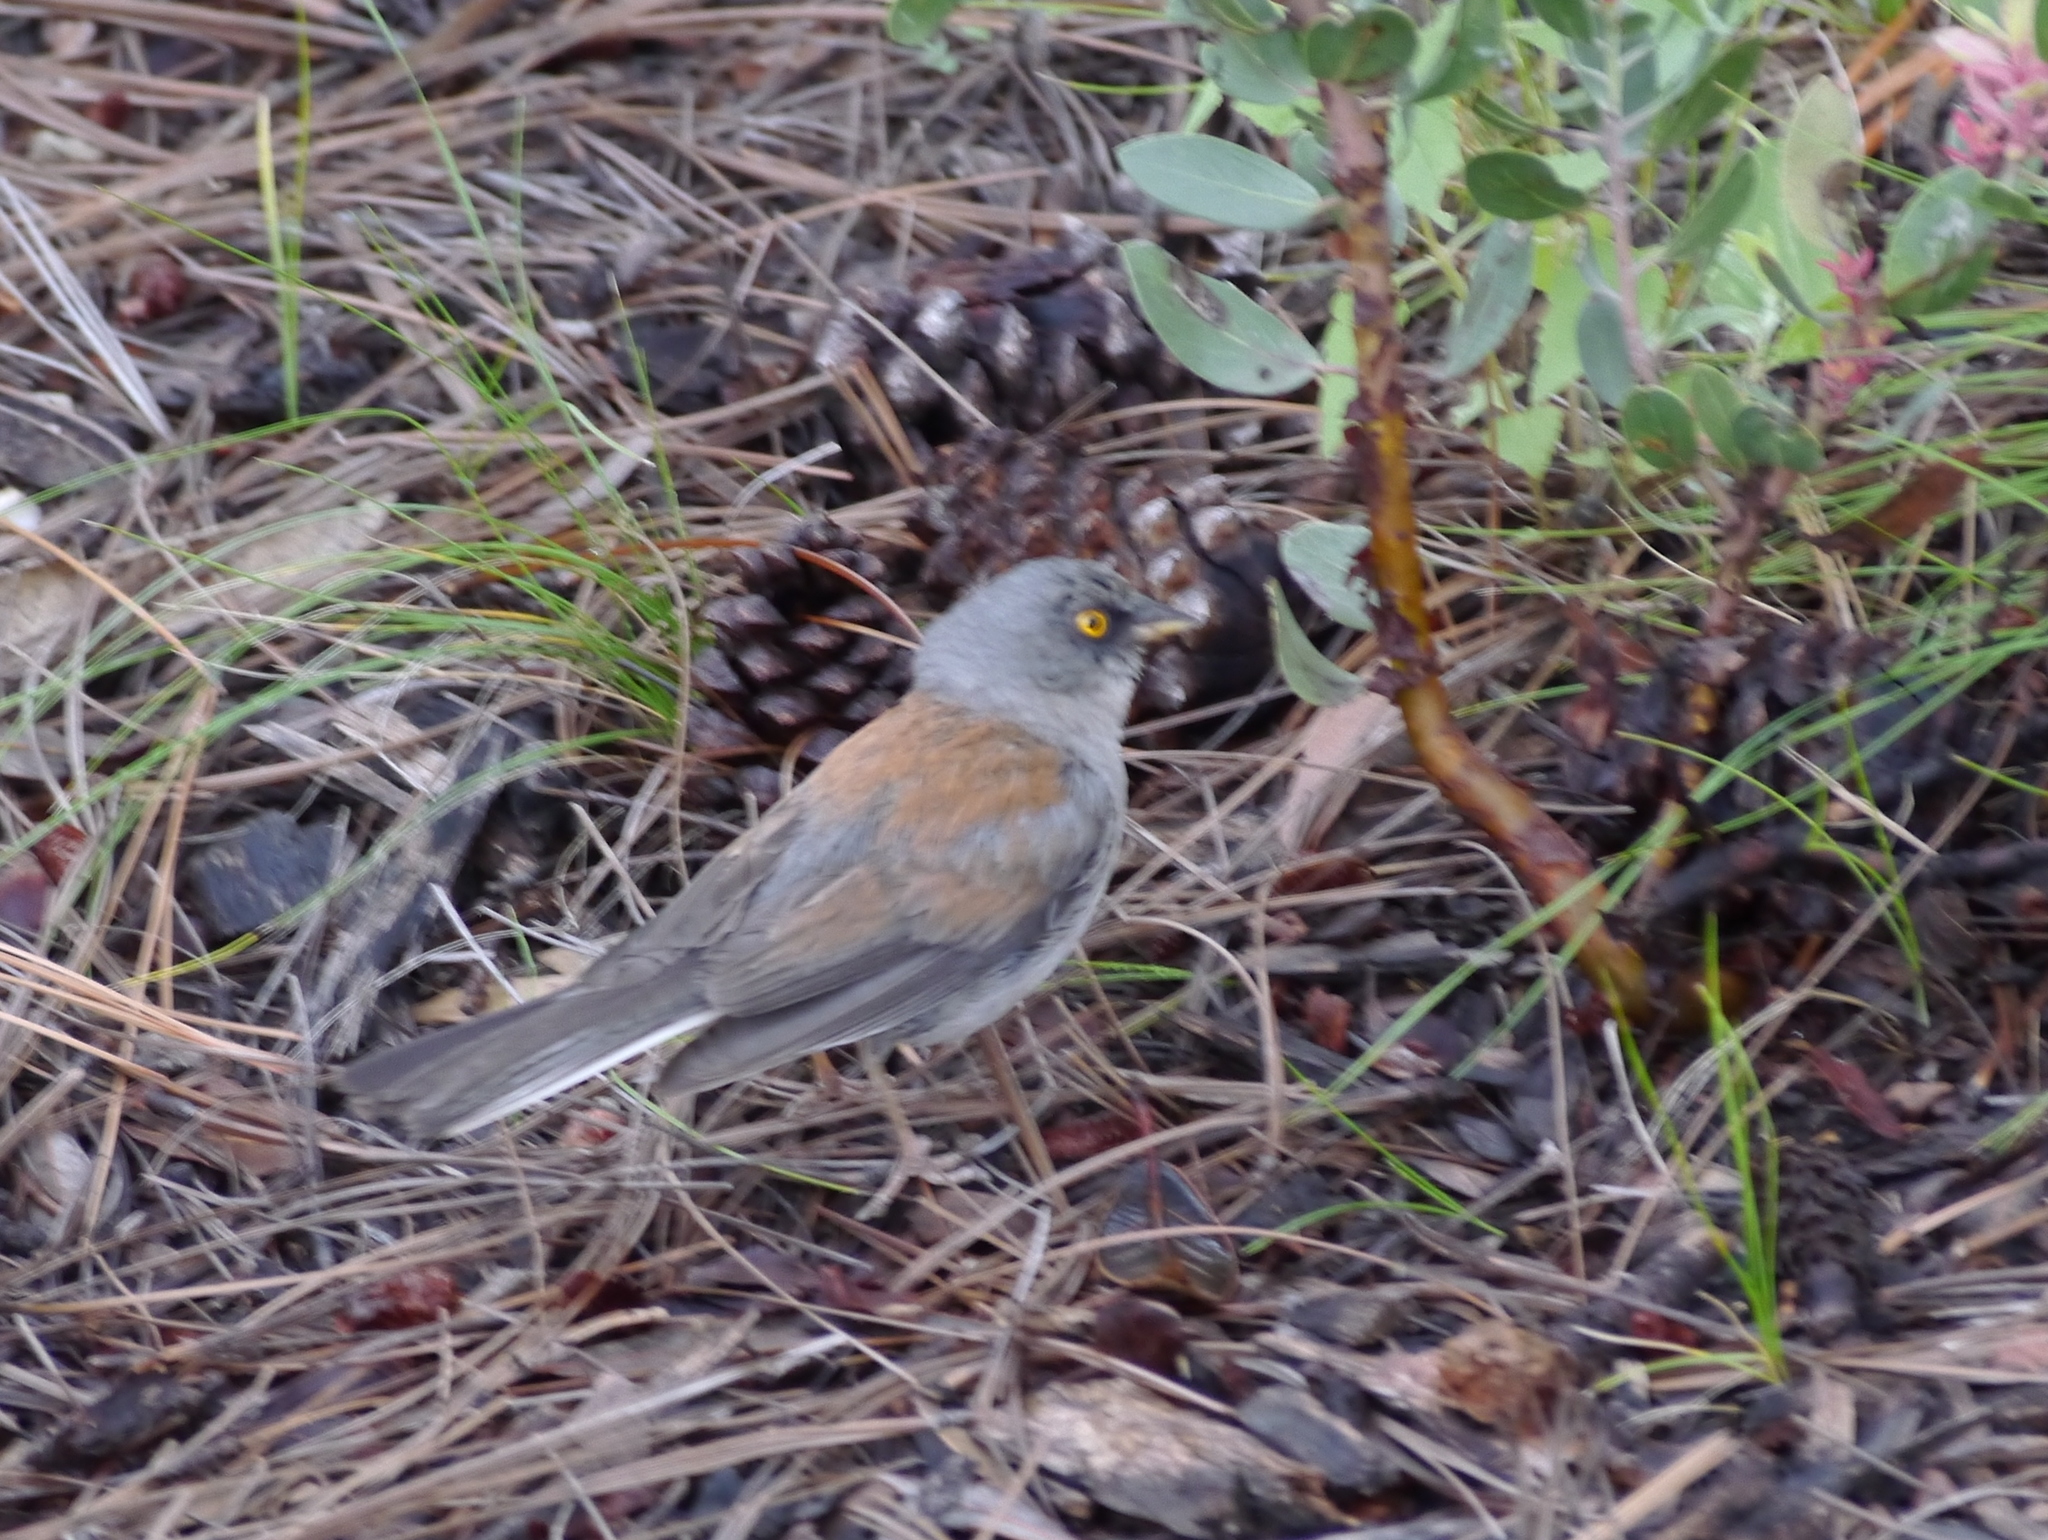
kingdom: Animalia
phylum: Chordata
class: Aves
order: Passeriformes
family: Passerellidae
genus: Junco
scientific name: Junco phaeonotus
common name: Yellow-eyed junco
